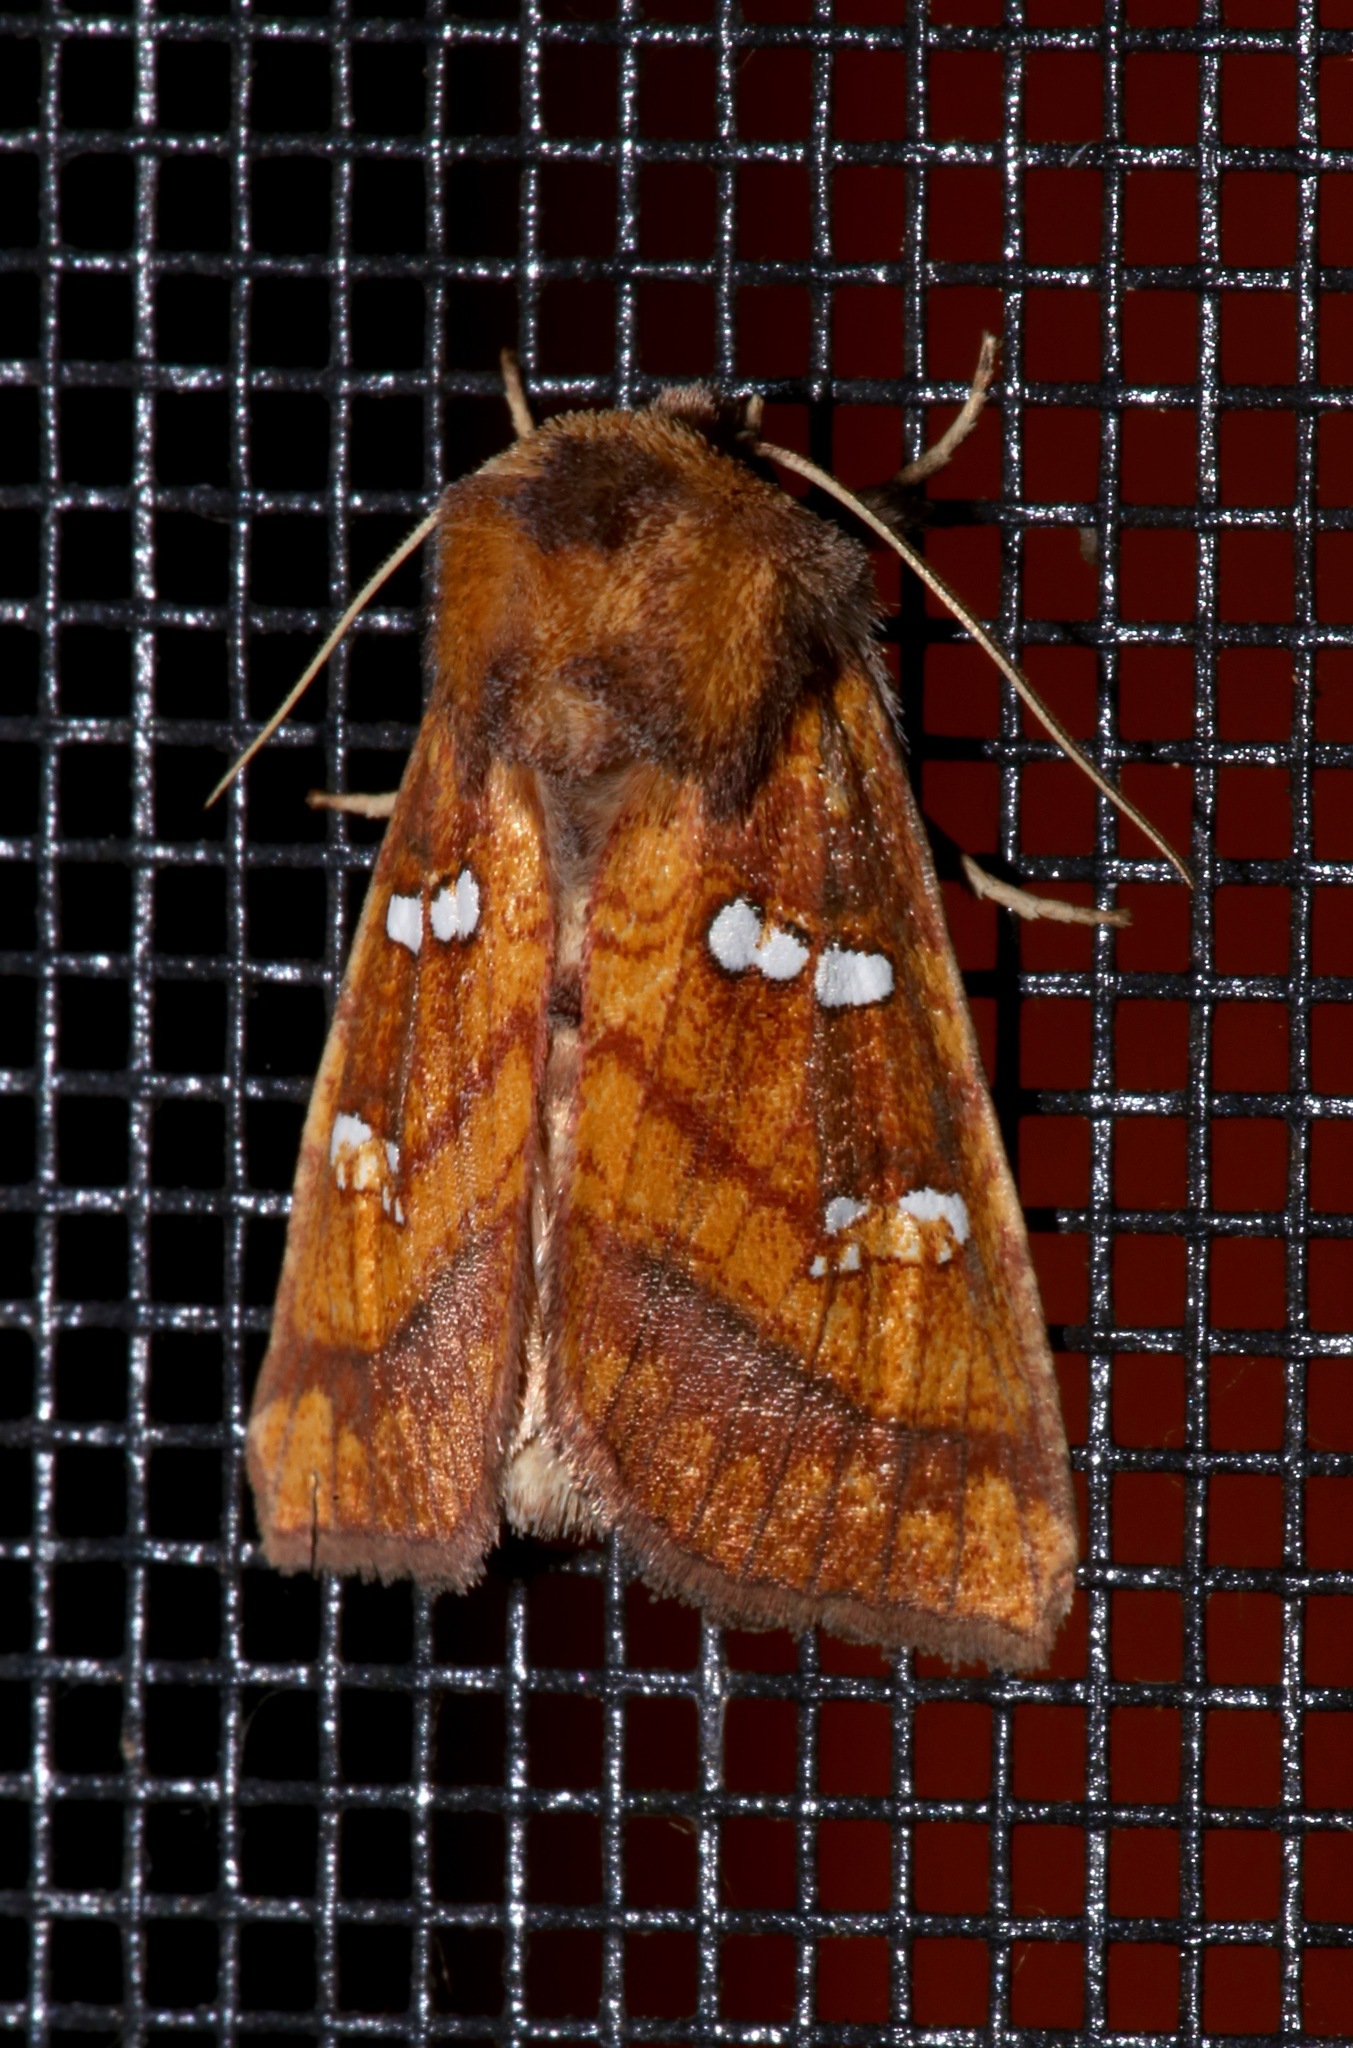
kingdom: Animalia
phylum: Arthropoda
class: Insecta
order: Lepidoptera
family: Noctuidae
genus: Papaipema
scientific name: Papaipema pterisii
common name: Bracken borer moth
